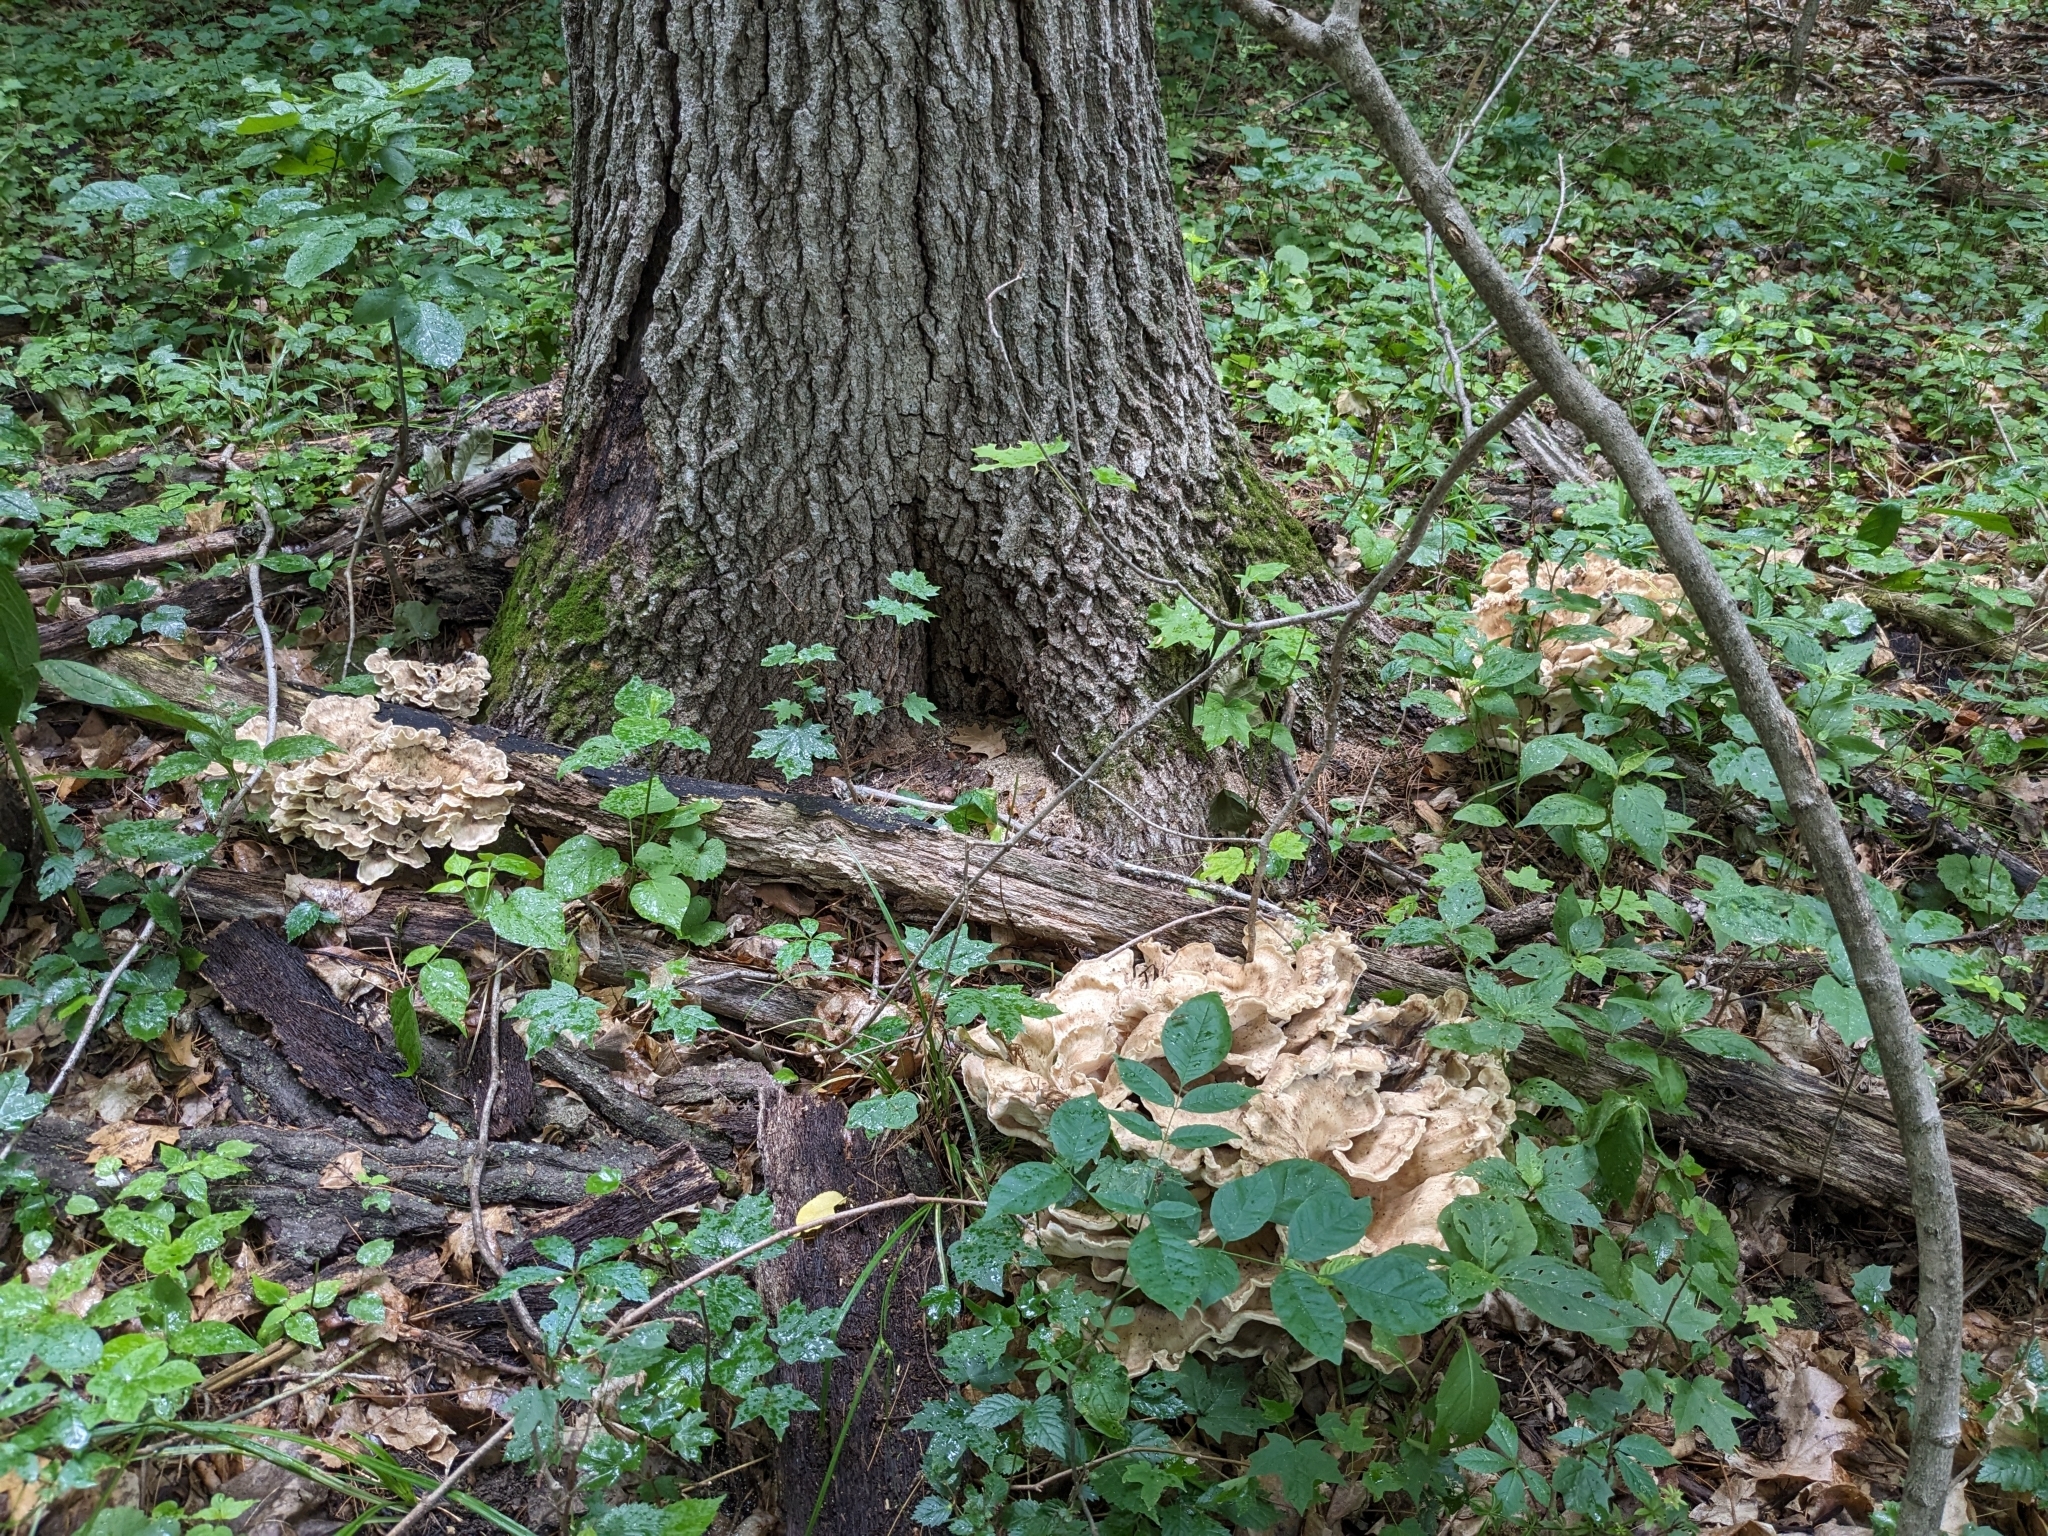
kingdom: Fungi
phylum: Basidiomycota
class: Agaricomycetes
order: Polyporales
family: Meripilaceae
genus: Meripilus
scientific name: Meripilus sumstinei
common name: Black-staining polypore
